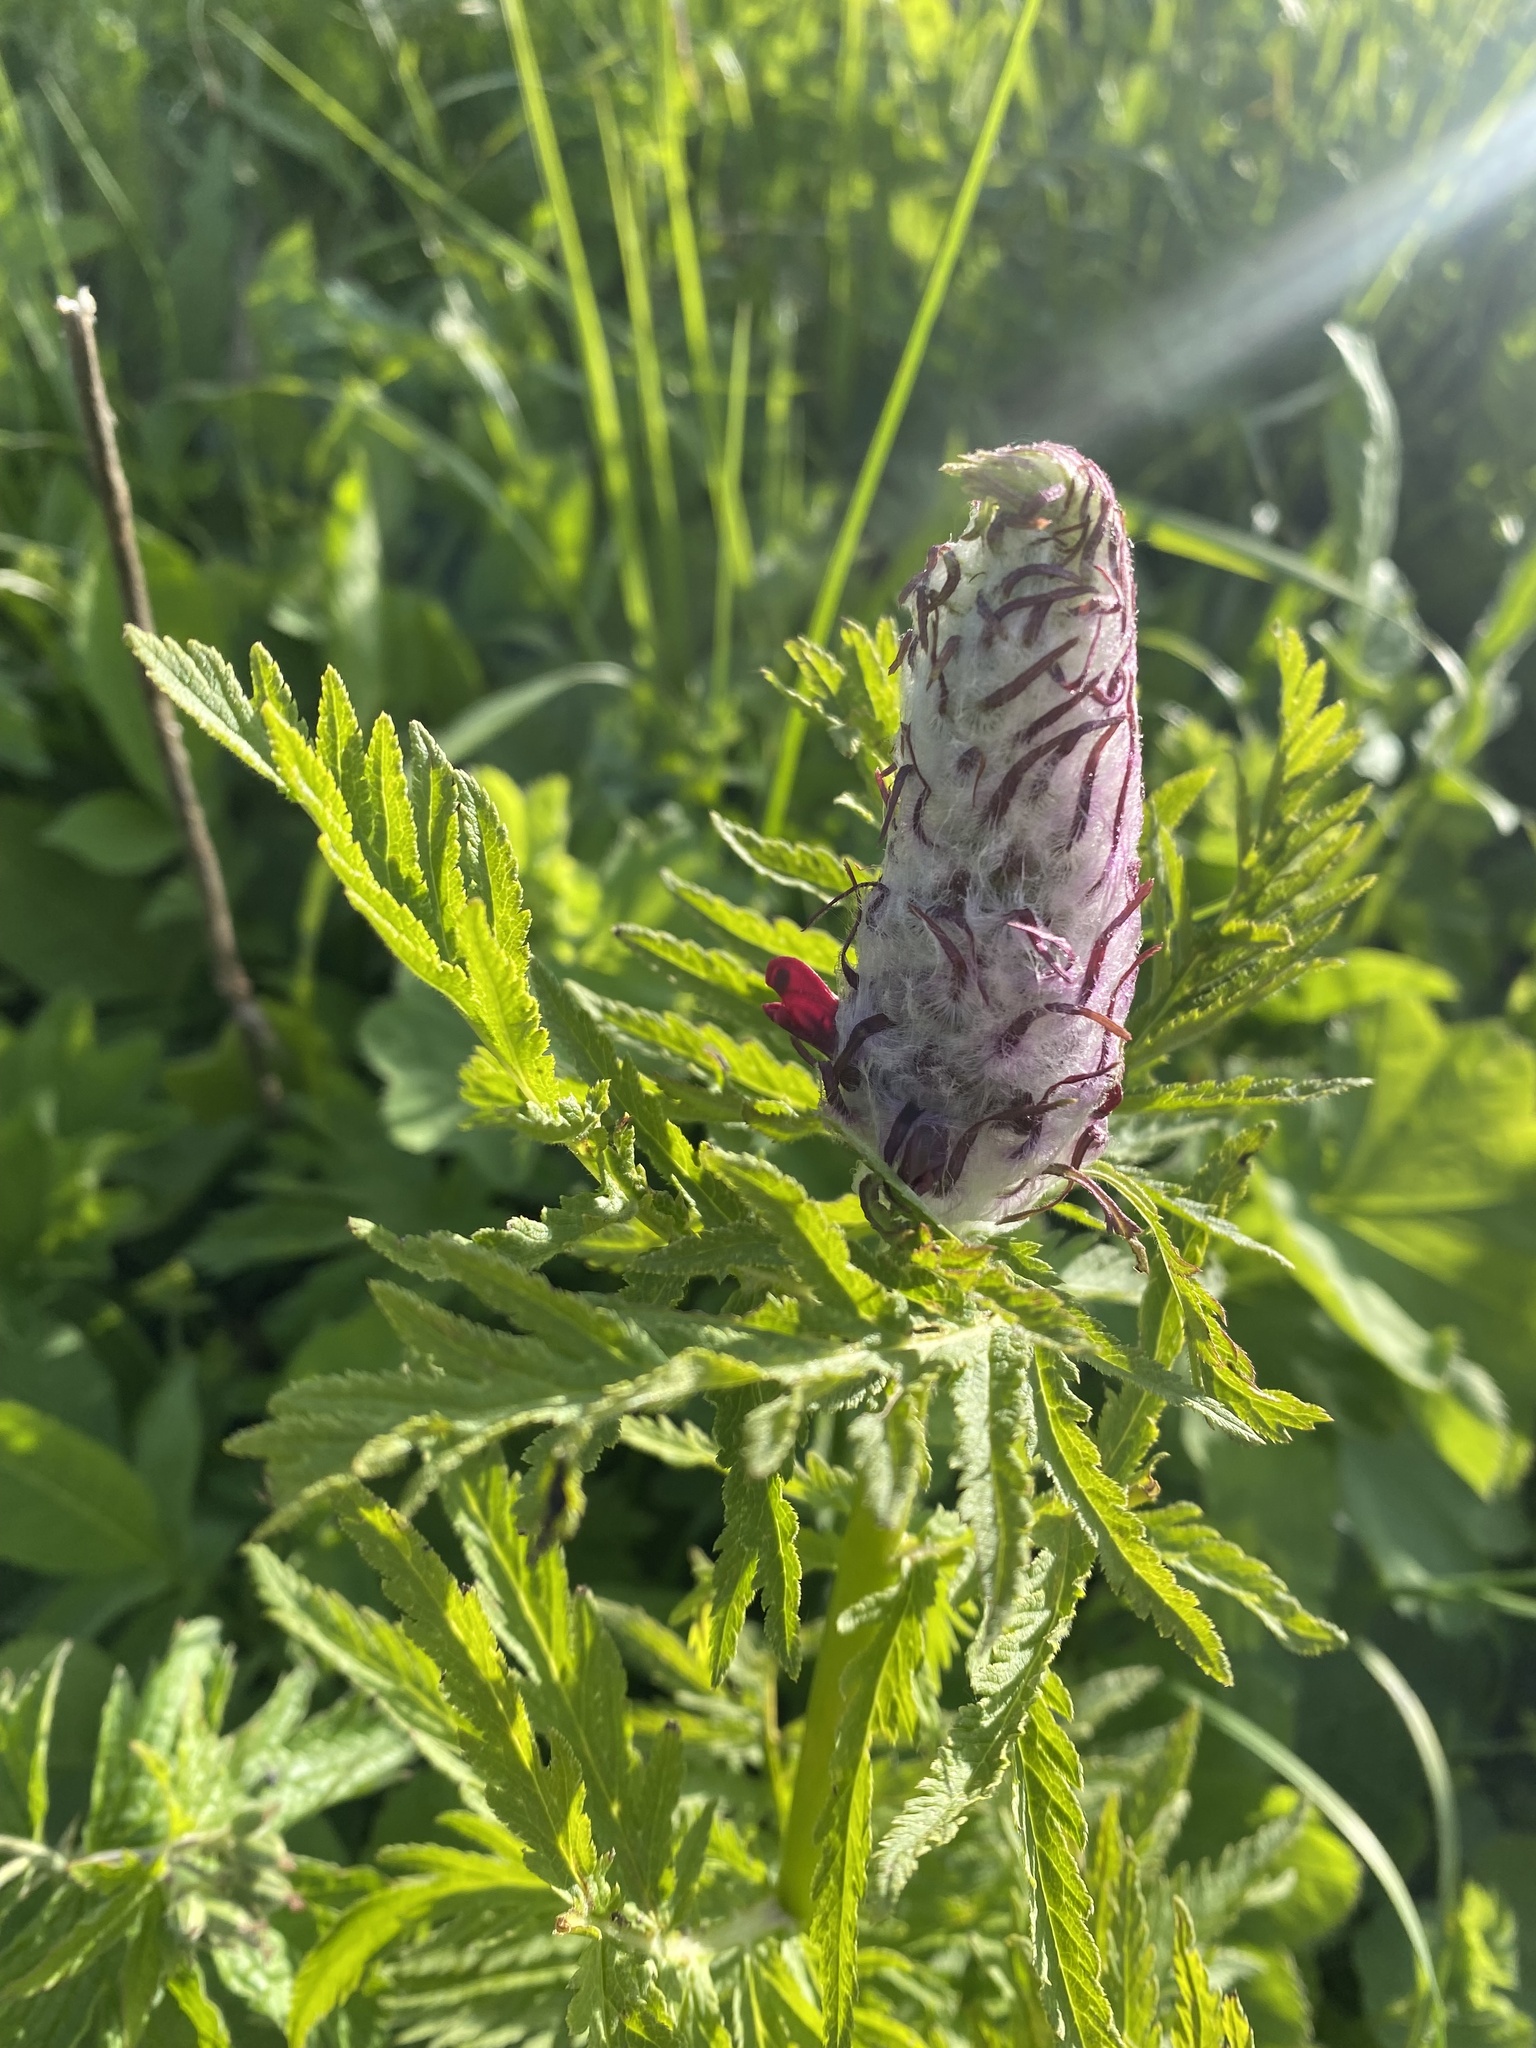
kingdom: Plantae
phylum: Tracheophyta
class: Magnoliopsida
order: Lamiales
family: Orobanchaceae
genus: Pedicularis
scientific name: Pedicularis atropurpurea
